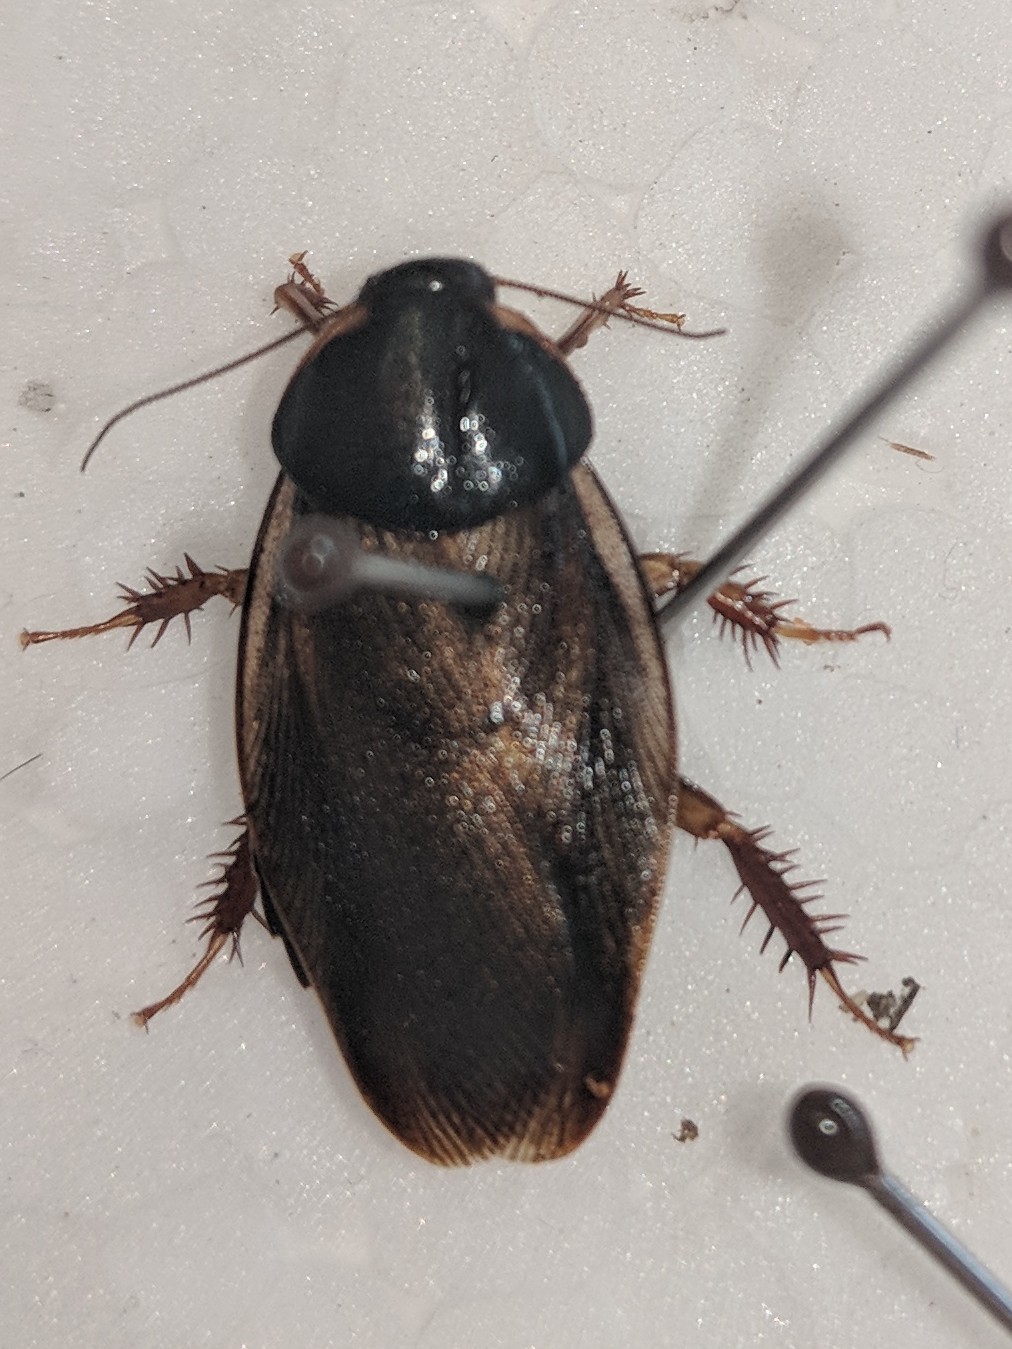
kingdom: Animalia
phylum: Arthropoda
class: Insecta
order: Blattodea
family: Blaberidae
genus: Pycnoscelus
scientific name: Pycnoscelus surinamensis
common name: Surinam cockroach
